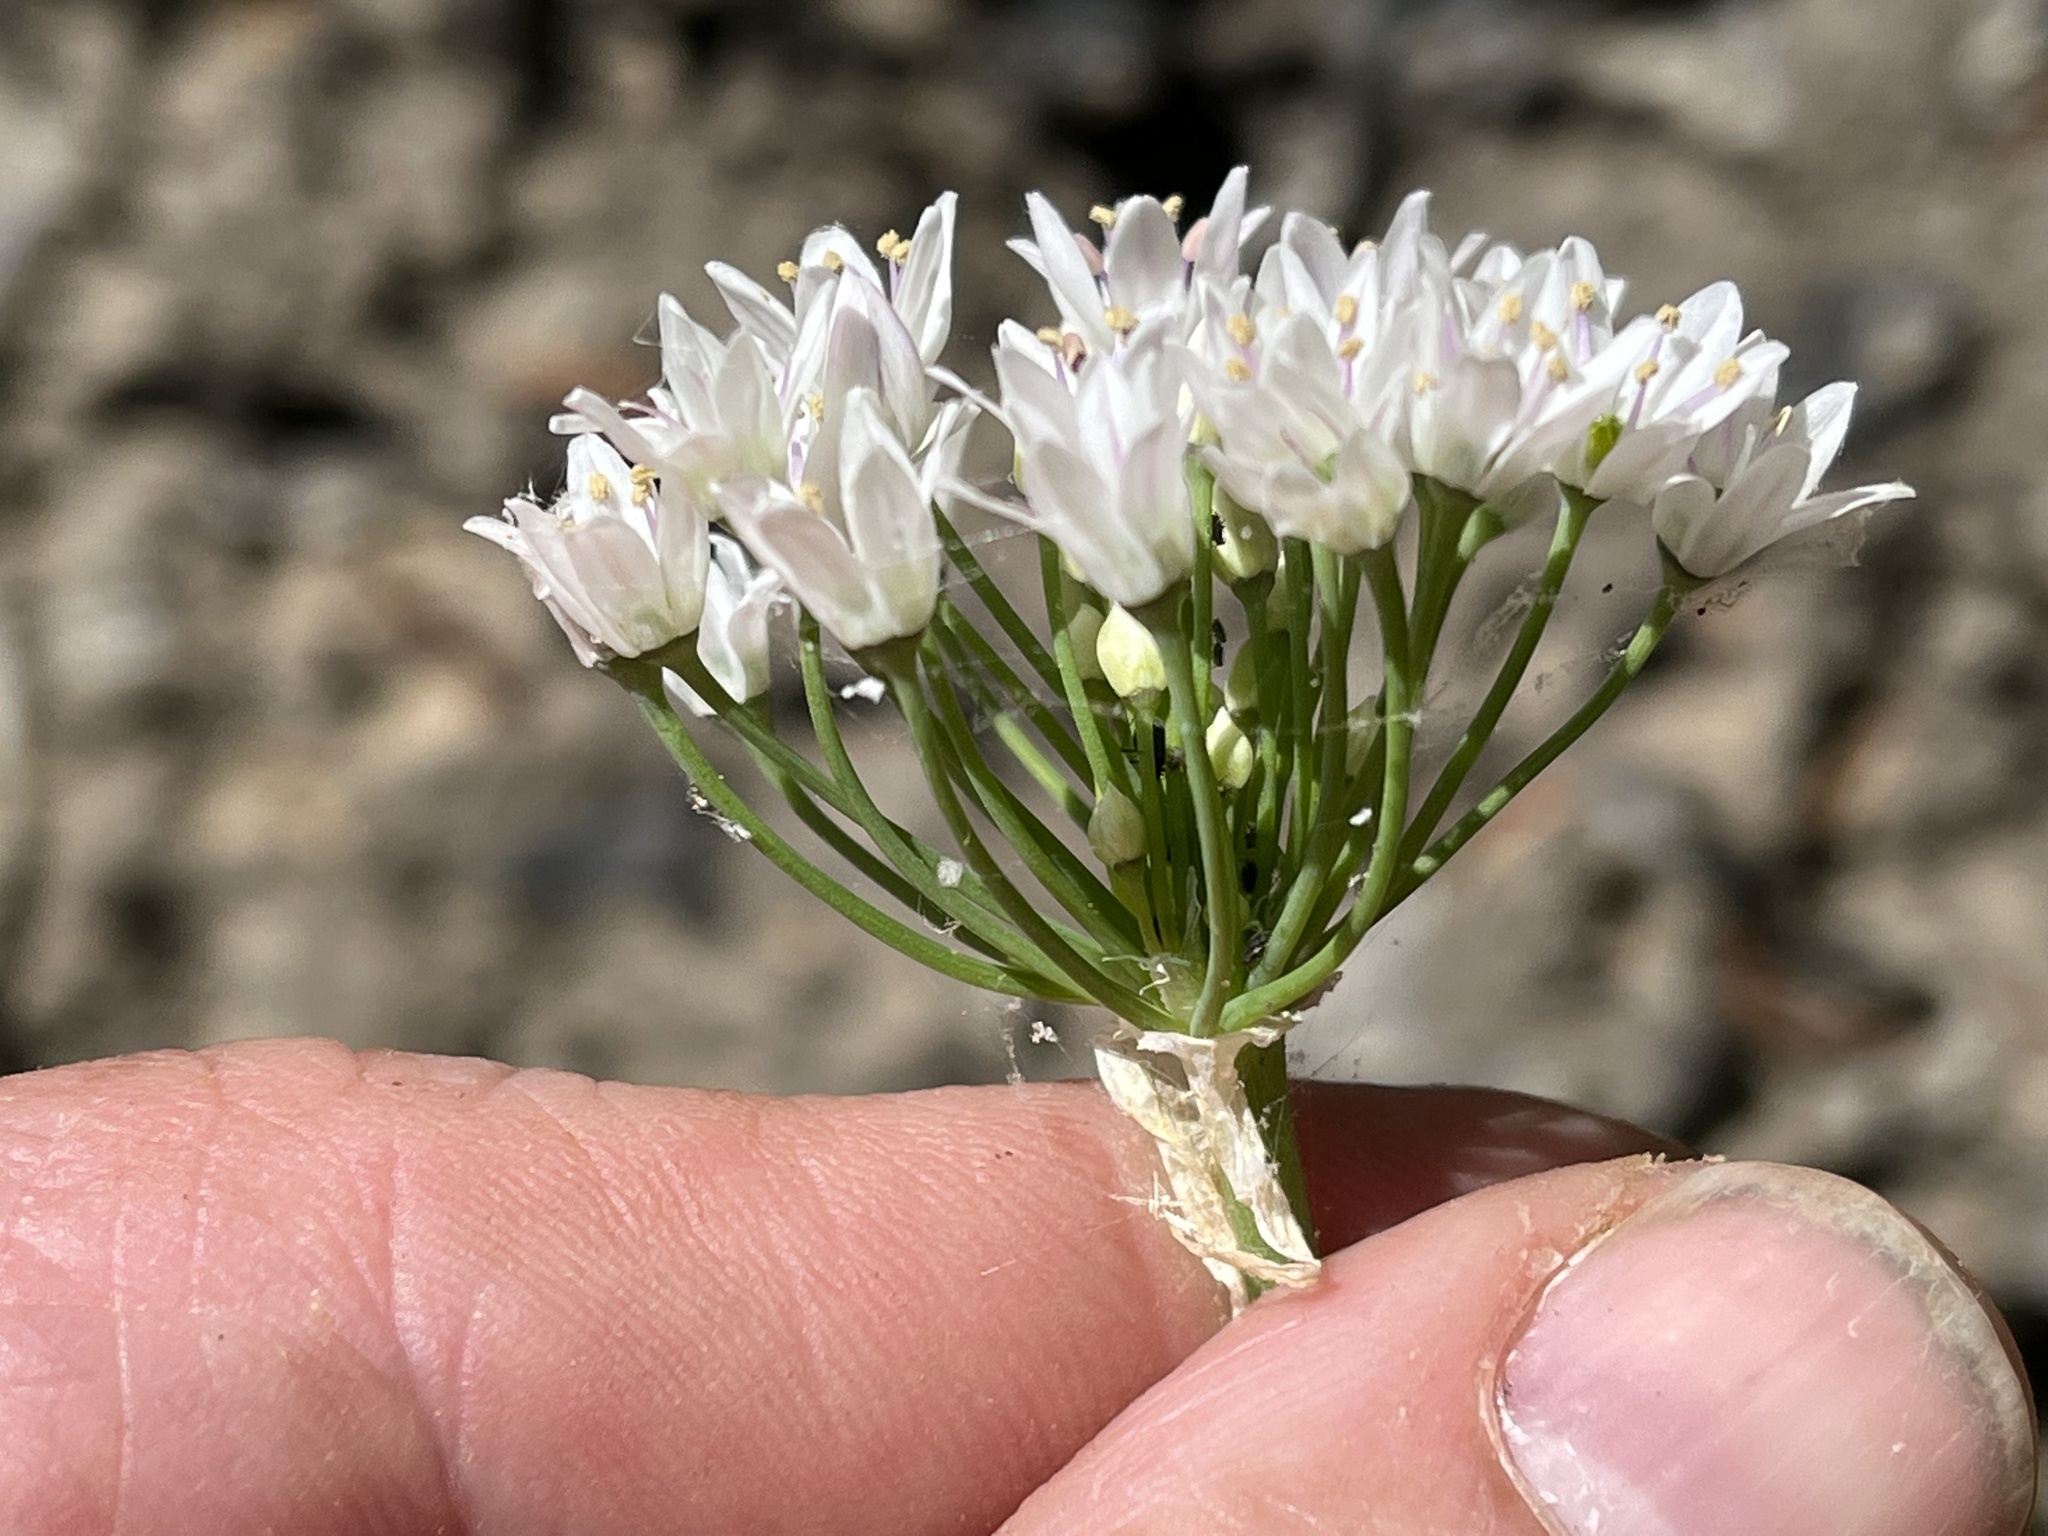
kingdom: Plantae
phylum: Tracheophyta
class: Liliopsida
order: Asparagales
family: Amaryllidaceae
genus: Allium
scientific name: Allium canadense
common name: Meadow garlic
